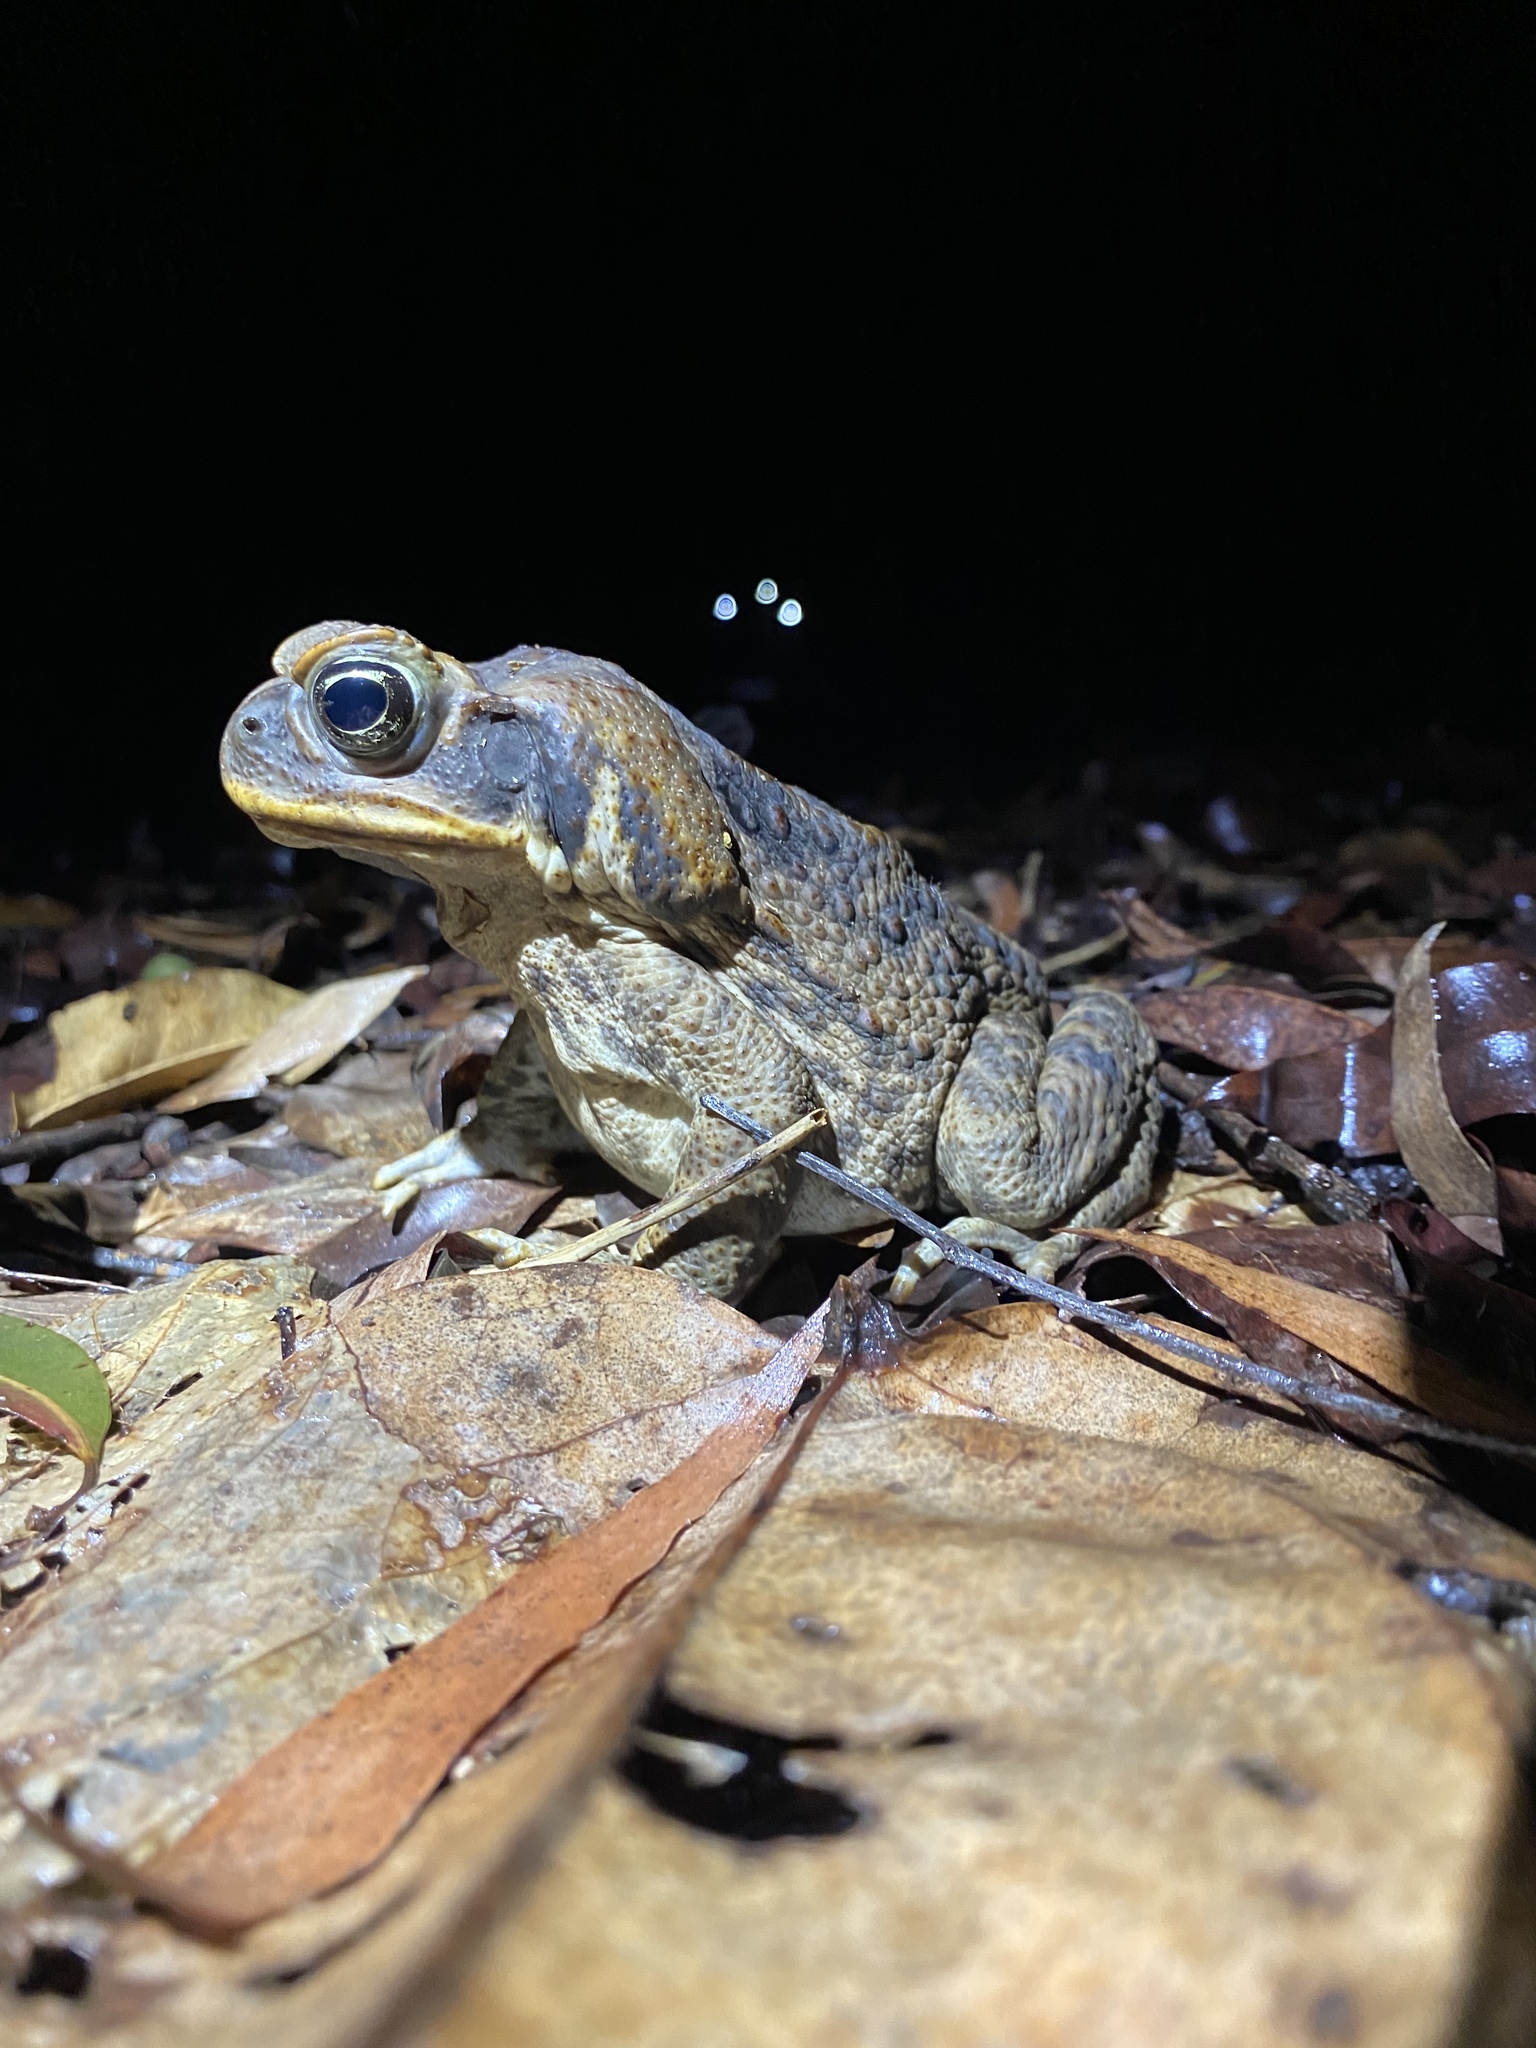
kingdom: Animalia
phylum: Chordata
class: Amphibia
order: Anura
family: Bufonidae
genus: Rhinella
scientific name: Rhinella marina
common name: Cane toad
